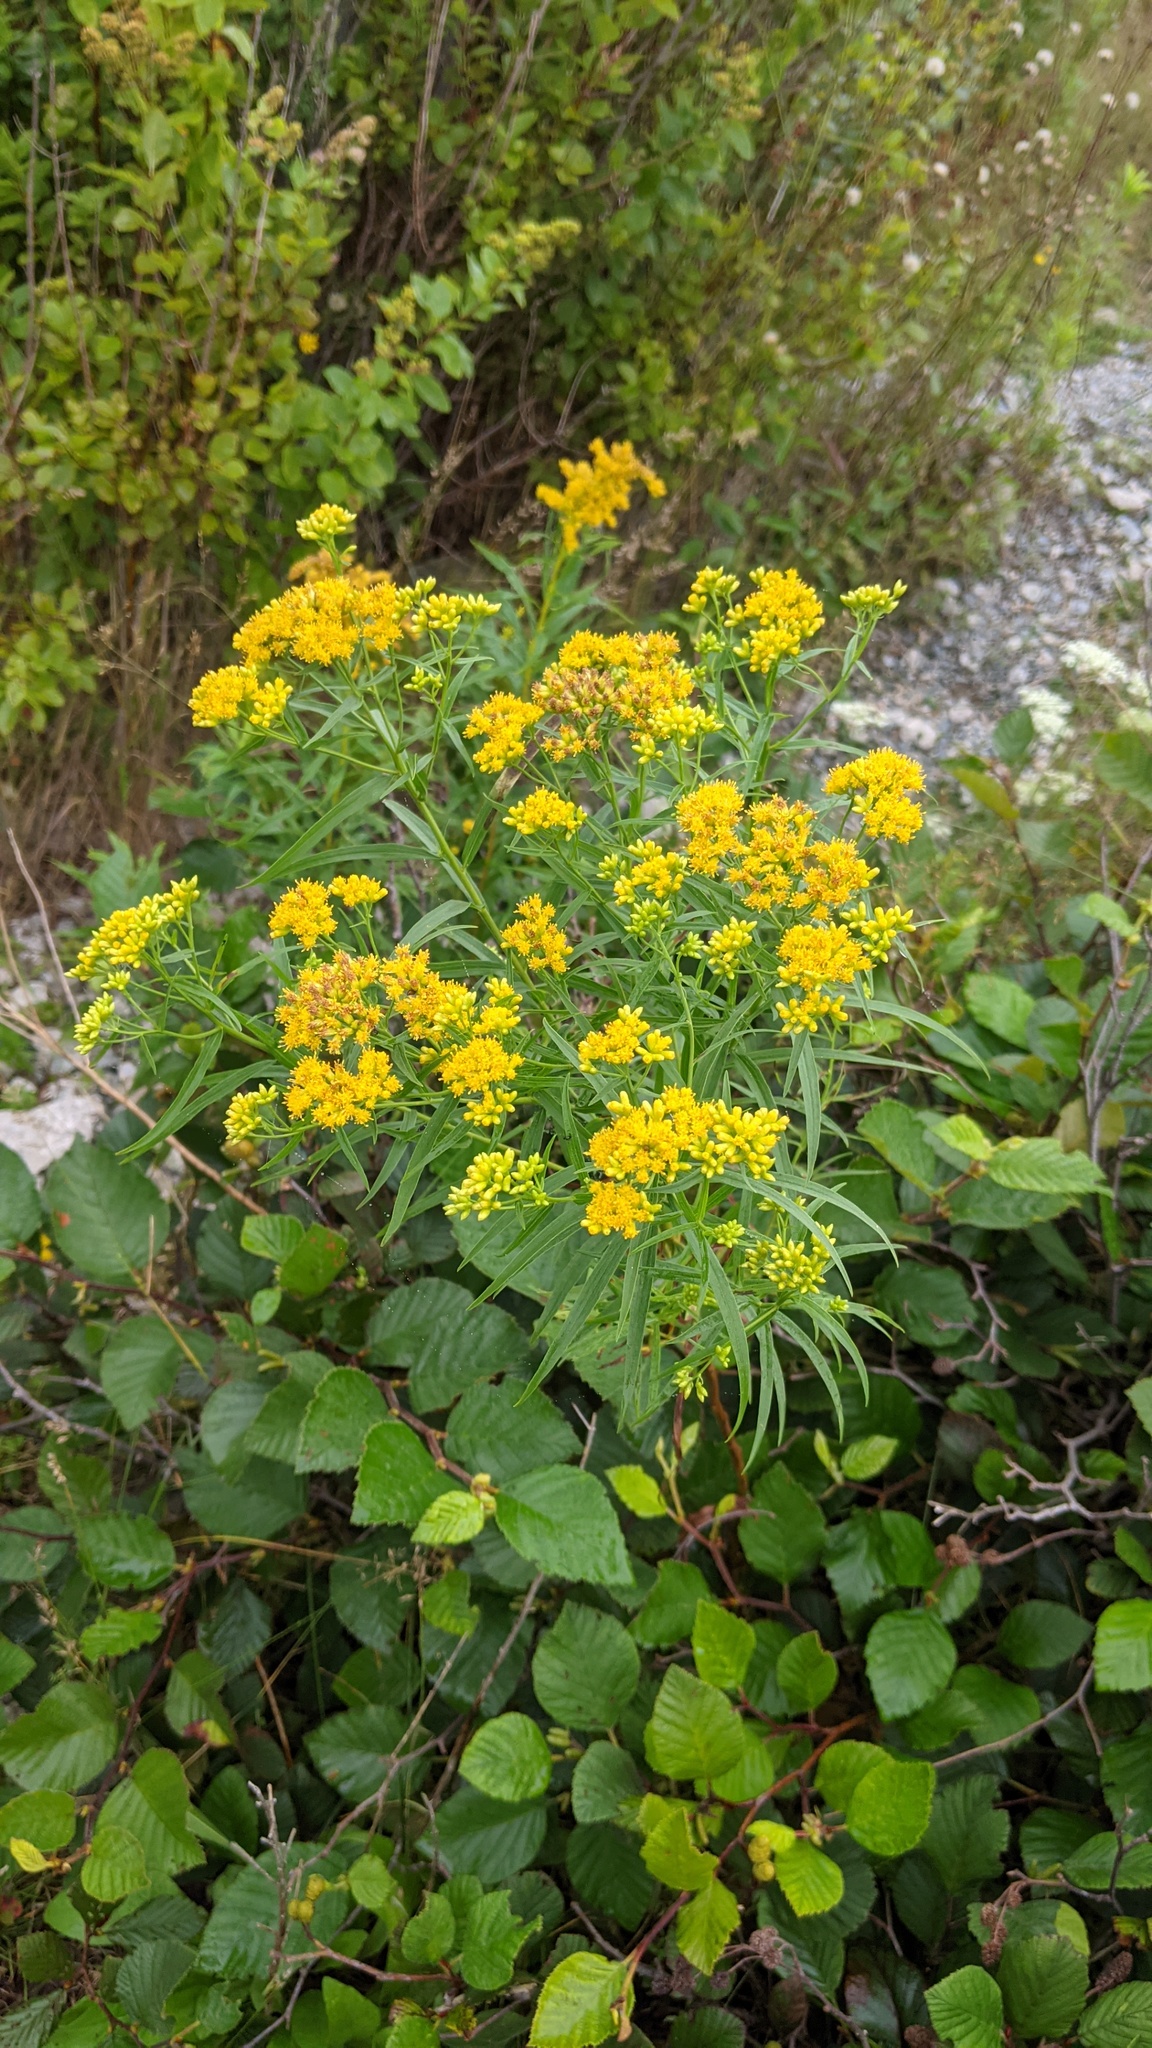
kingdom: Plantae
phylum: Tracheophyta
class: Magnoliopsida
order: Asterales
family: Asteraceae
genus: Euthamia
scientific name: Euthamia graminifolia
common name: Common goldentop
